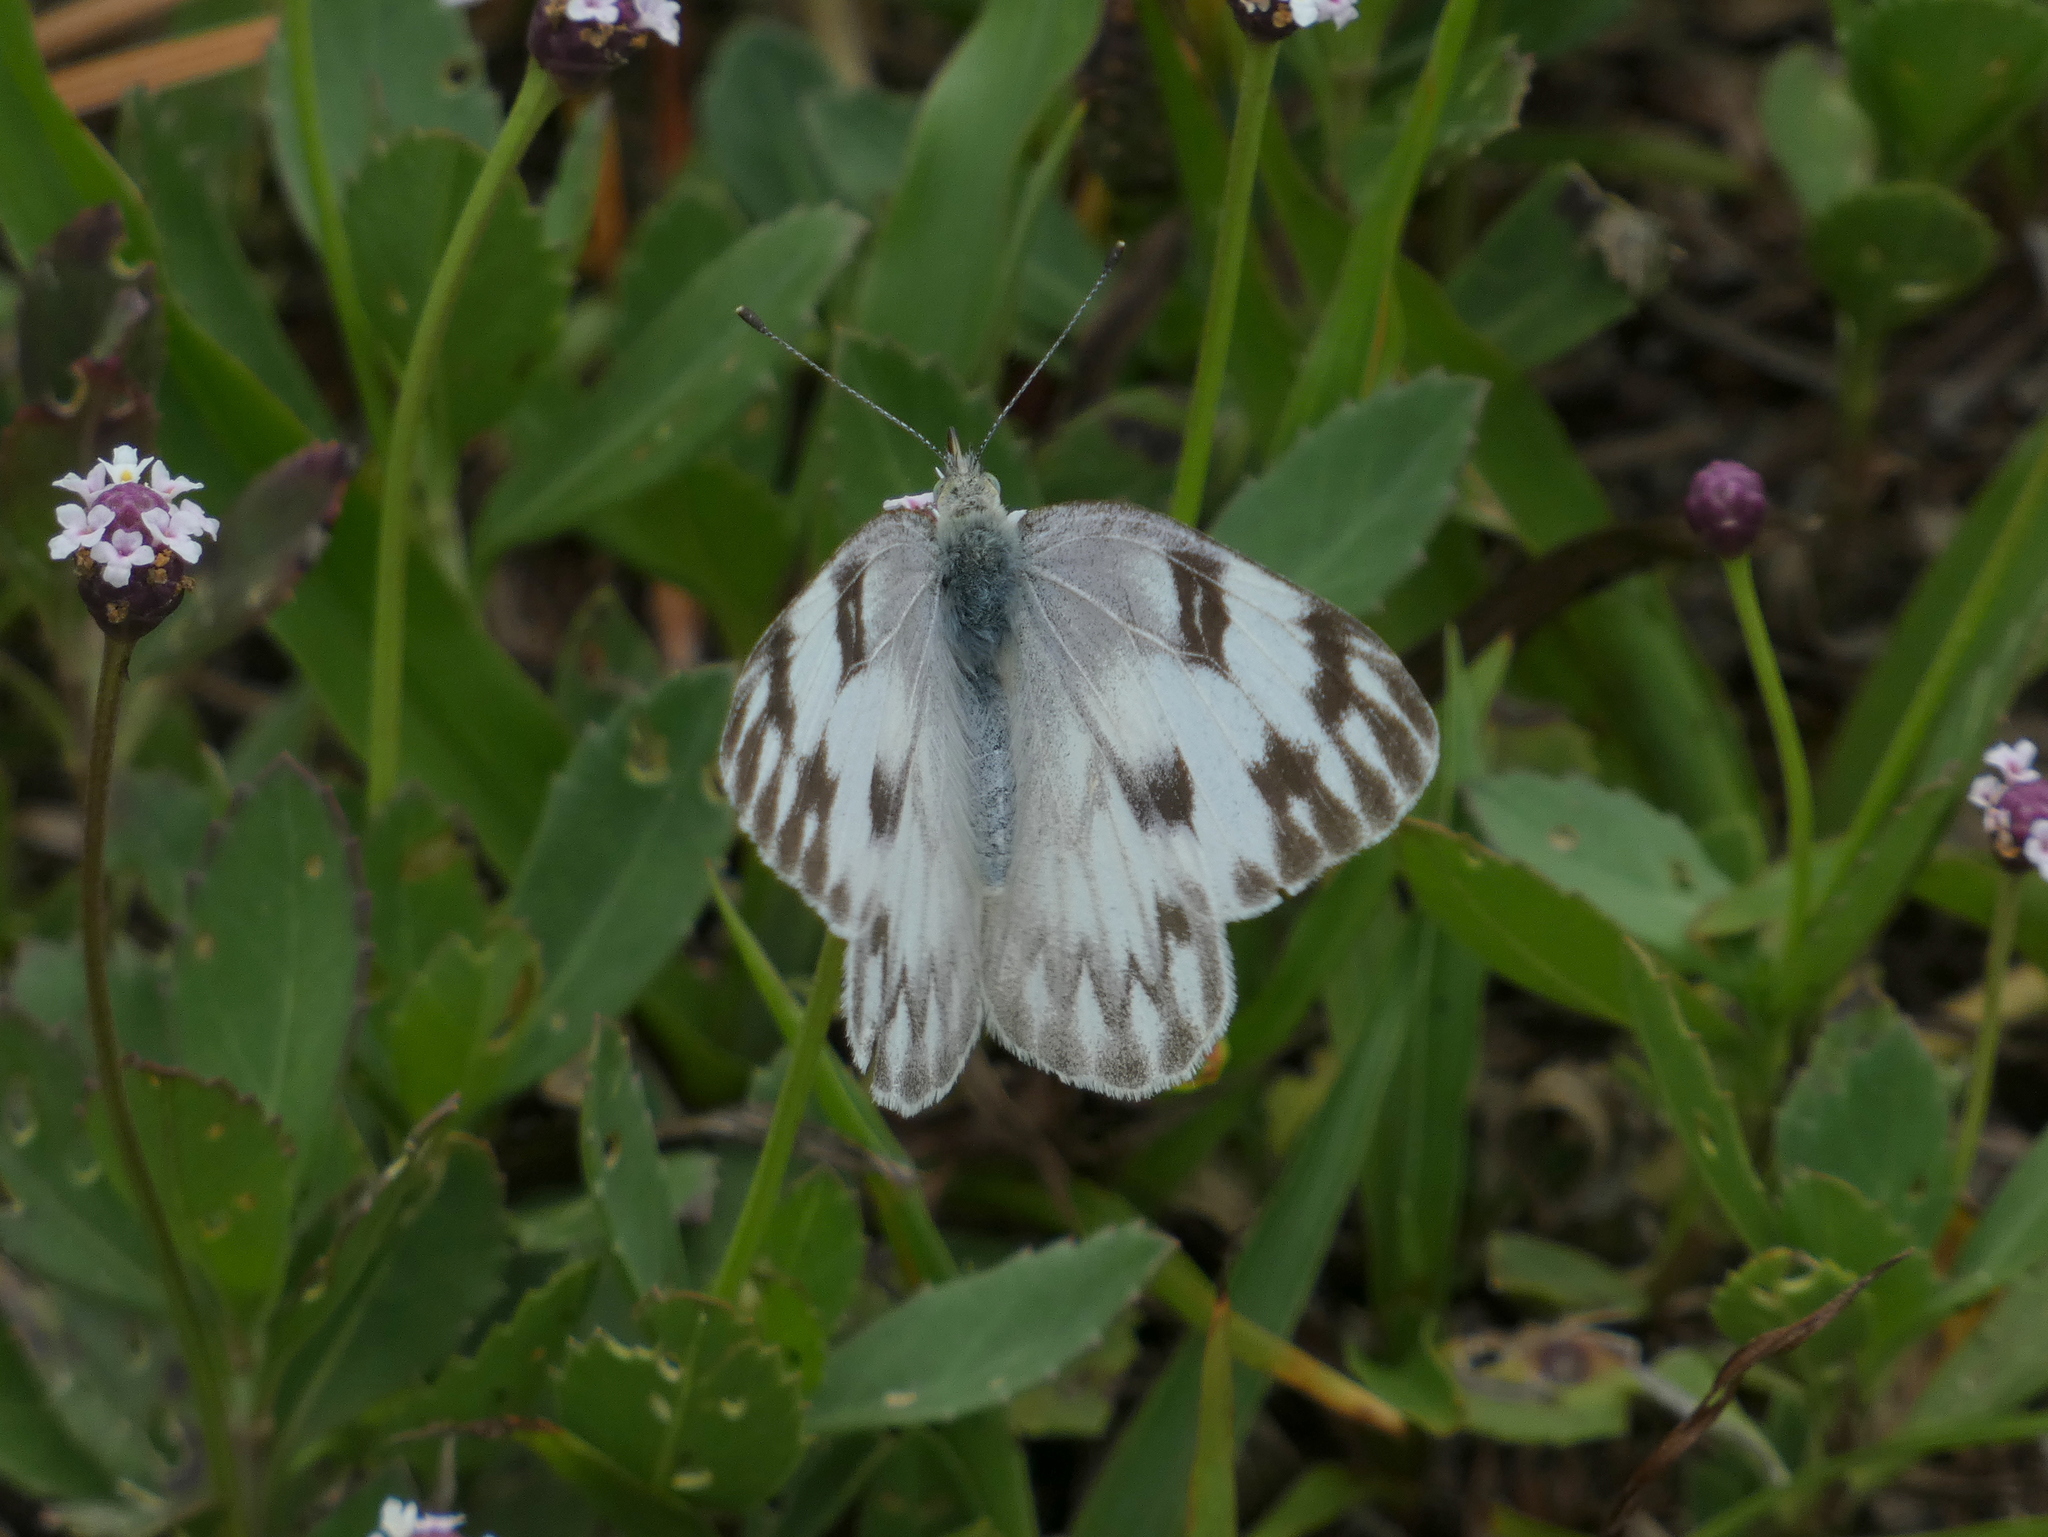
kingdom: Animalia
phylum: Arthropoda
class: Insecta
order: Lepidoptera
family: Pieridae
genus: Pontia
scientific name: Pontia protodice
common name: Checkered white
